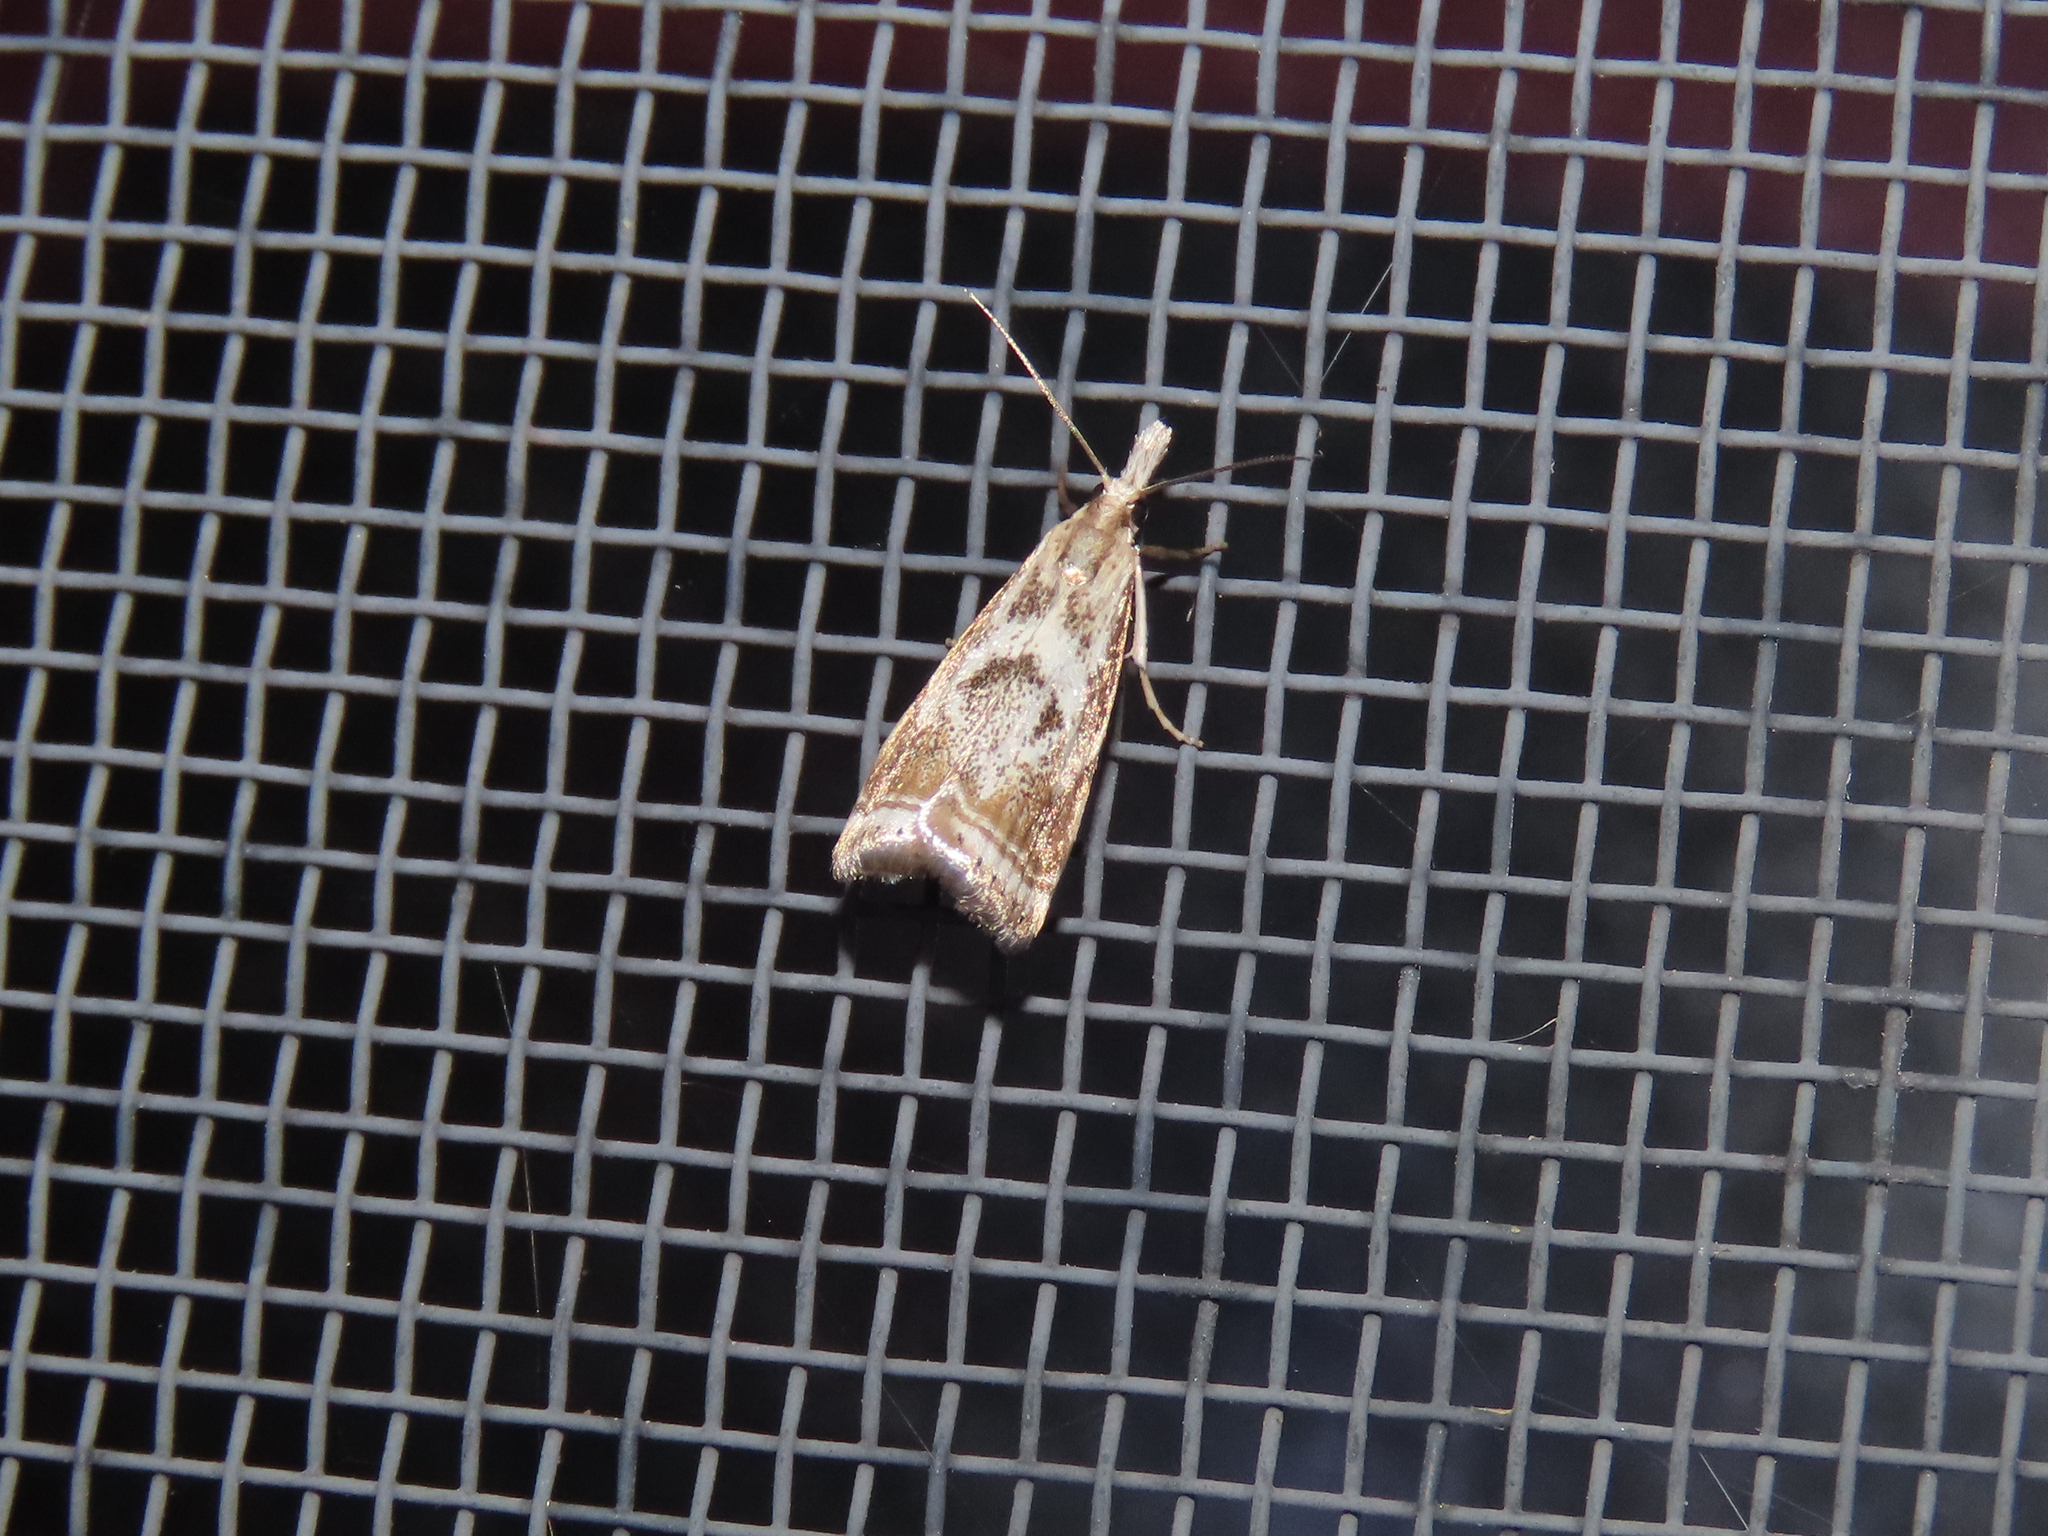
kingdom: Animalia
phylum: Arthropoda
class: Insecta
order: Lepidoptera
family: Crambidae
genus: Microcrambus
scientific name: Microcrambus elegans
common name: Elegant grass-veneer
